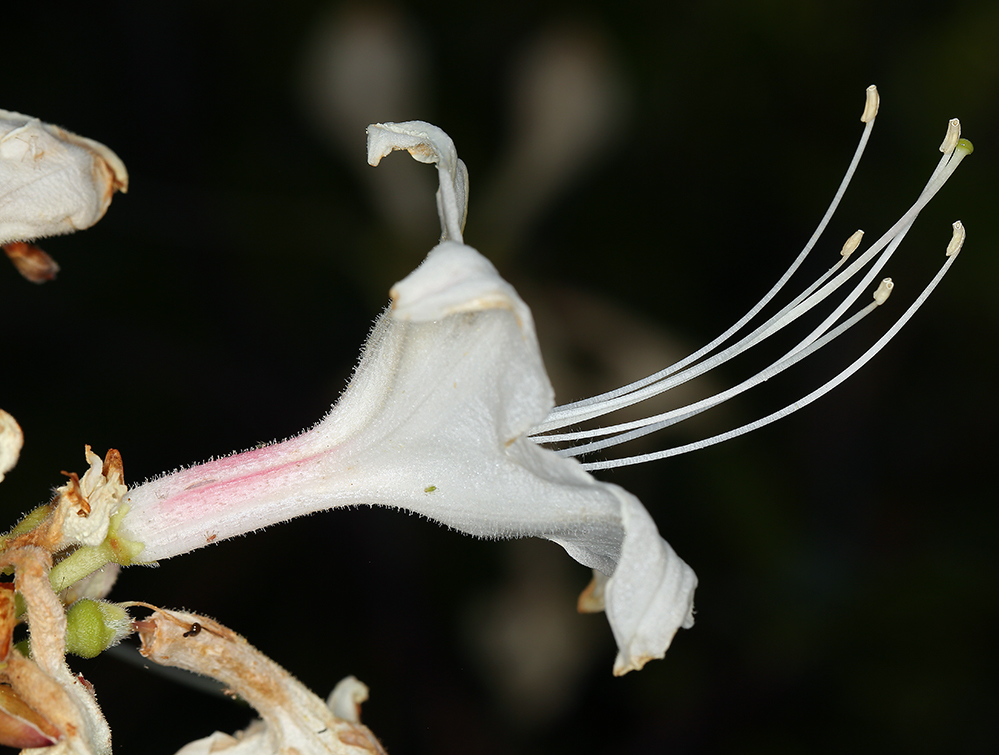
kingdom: Plantae
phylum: Tracheophyta
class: Magnoliopsida
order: Ericales
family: Ericaceae
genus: Rhododendron
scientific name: Rhododendron occidentale
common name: Western azalea
